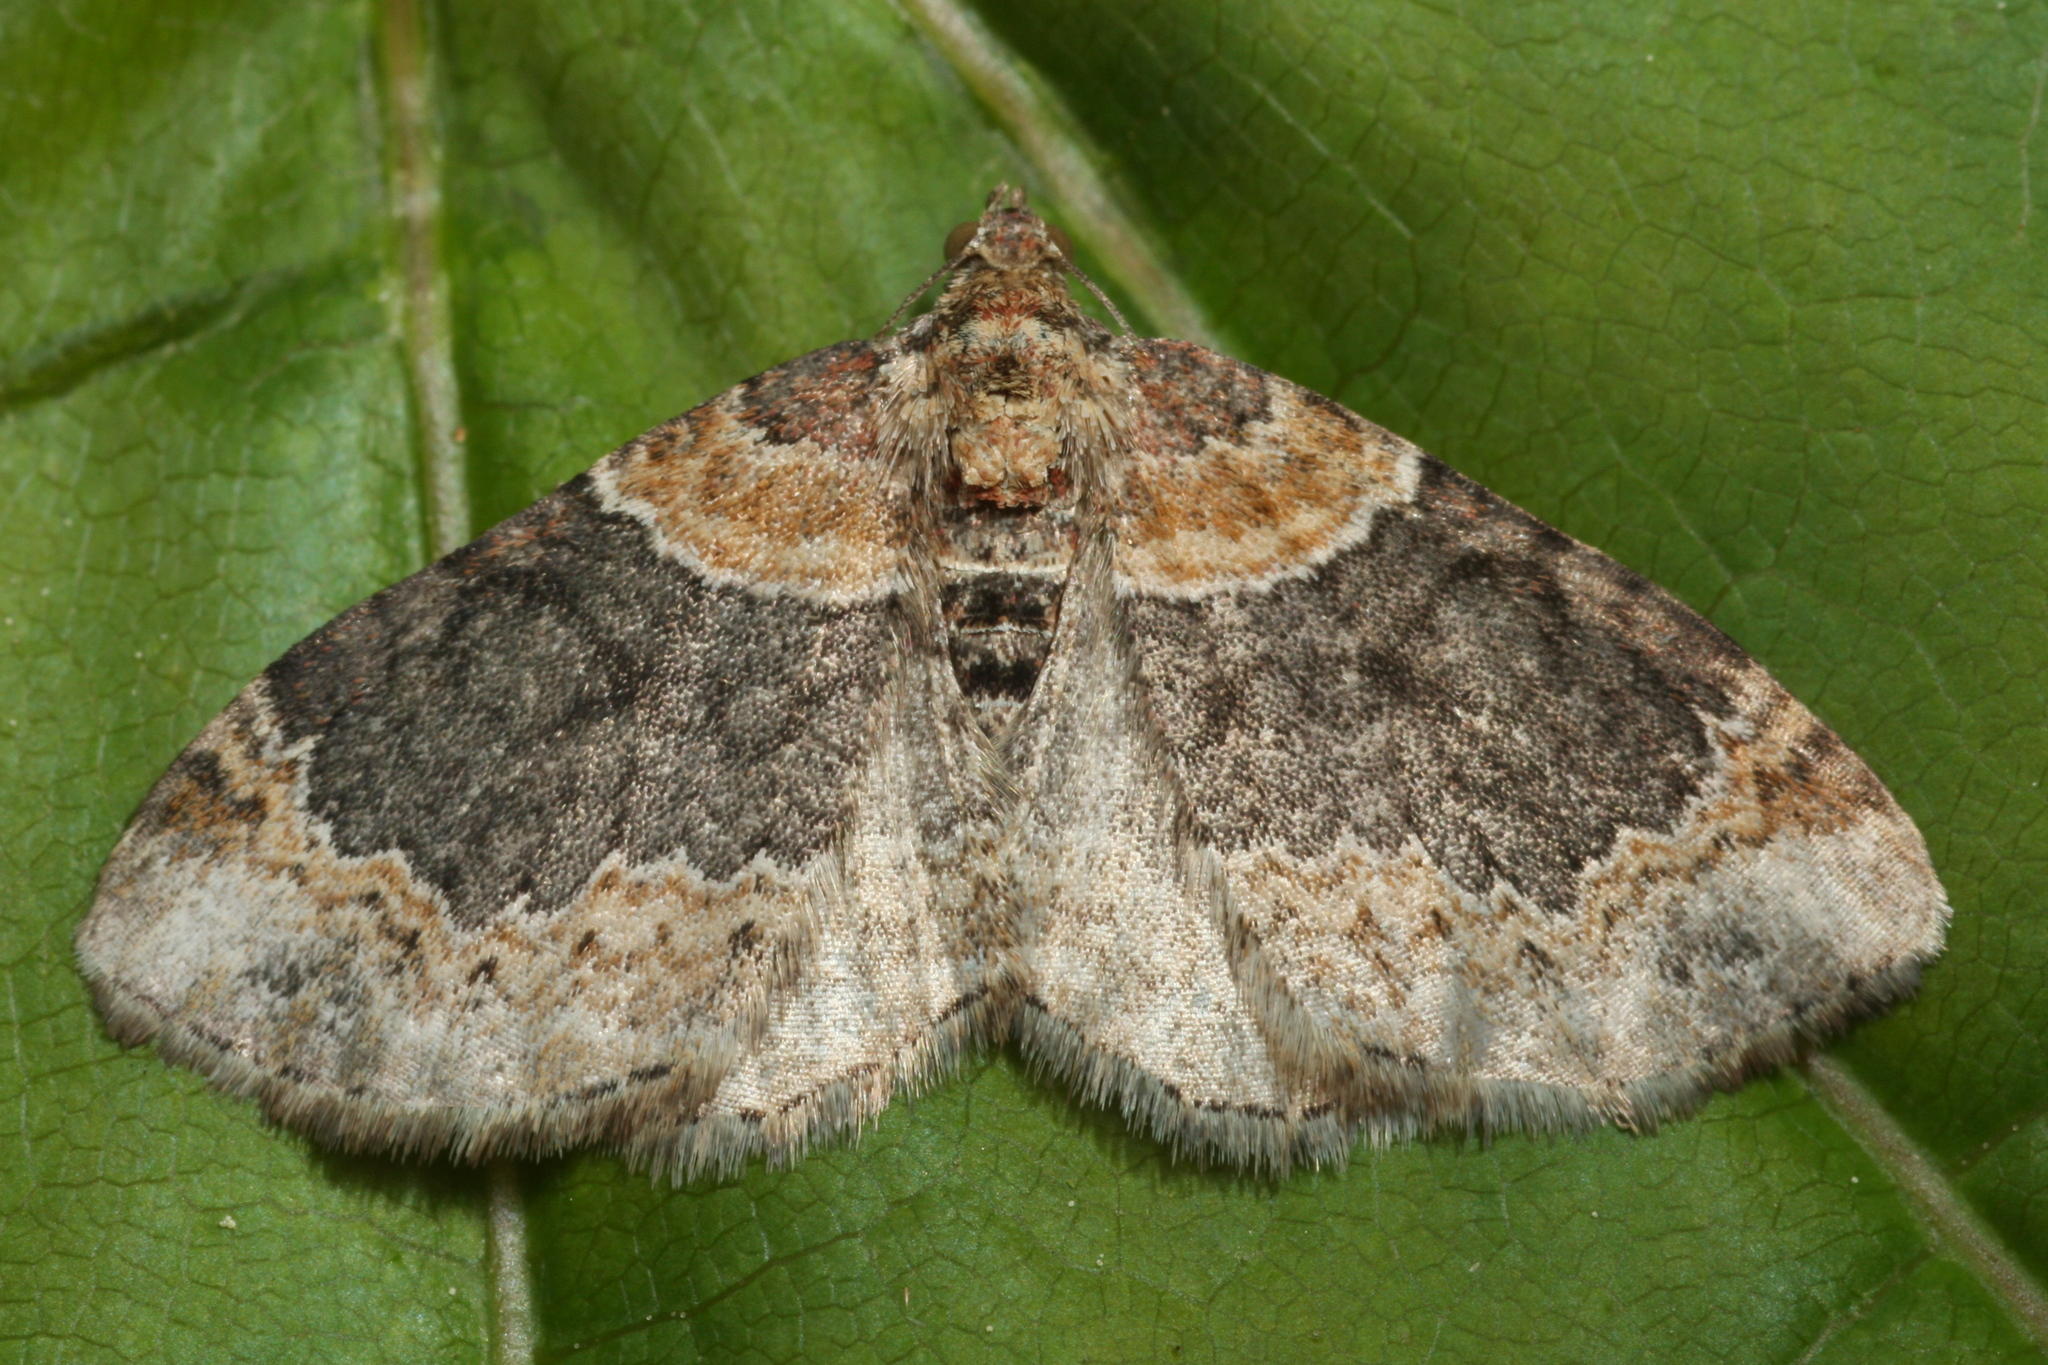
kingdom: Animalia
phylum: Arthropoda
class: Insecta
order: Lepidoptera
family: Geometridae
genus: Xanthorhoe
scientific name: Xanthorhoe ferrugata
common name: Dark-barred twin-spot carpet
